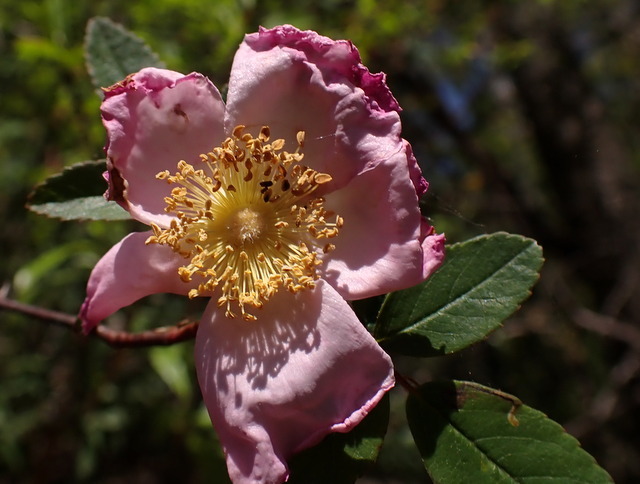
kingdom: Plantae
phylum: Tracheophyta
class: Magnoliopsida
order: Rosales
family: Rosaceae
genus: Rosa
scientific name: Rosa palustris
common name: Swamp rose
